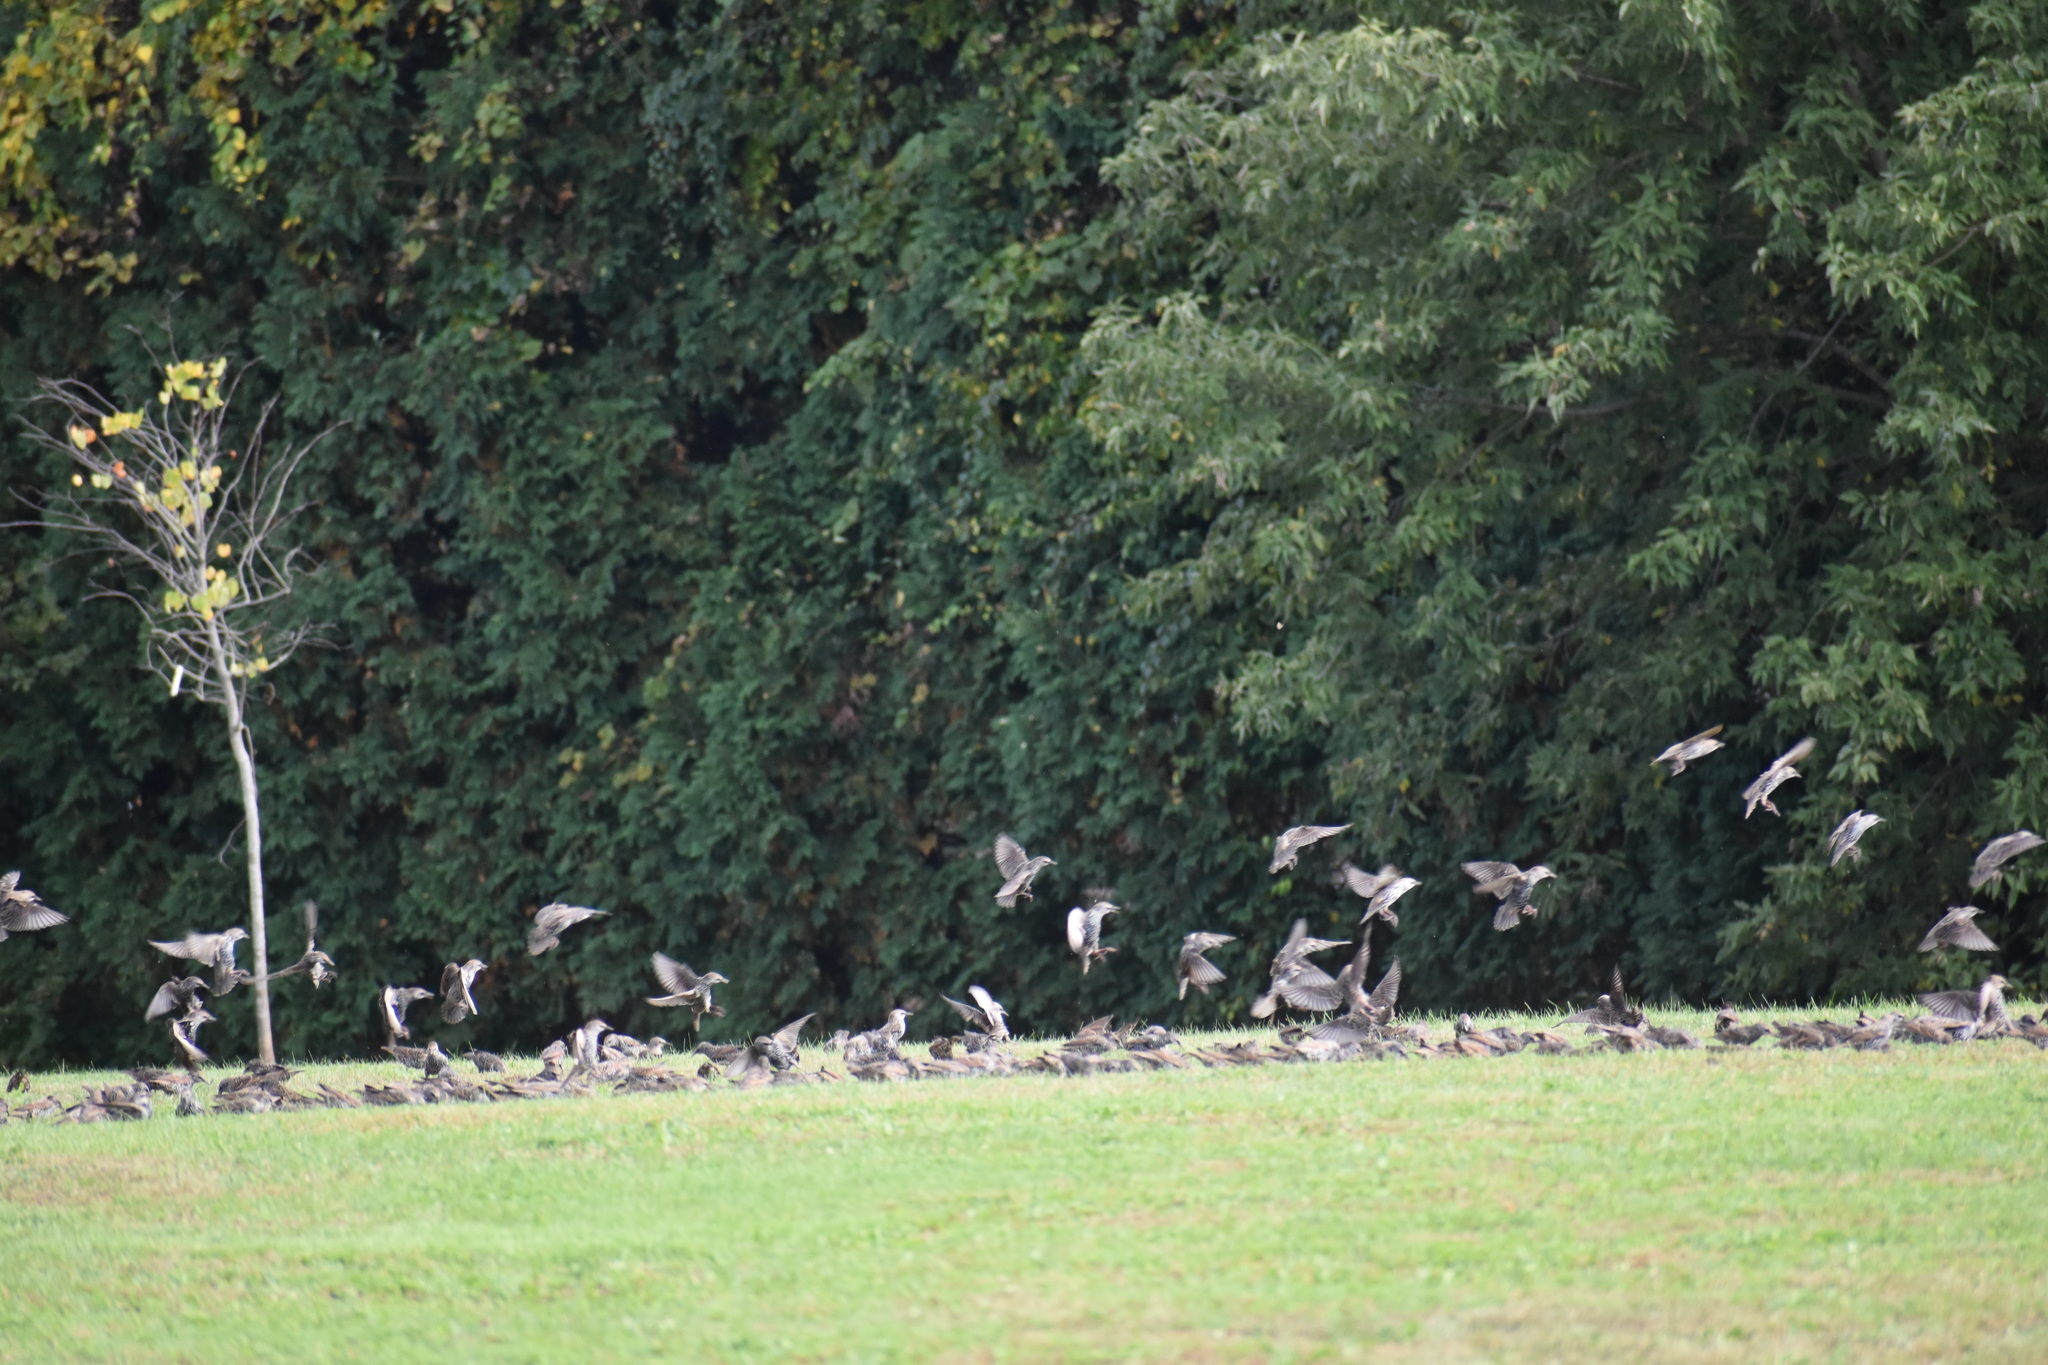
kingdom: Animalia
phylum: Chordata
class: Aves
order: Passeriformes
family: Sturnidae
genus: Sturnus
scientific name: Sturnus vulgaris
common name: Common starling
